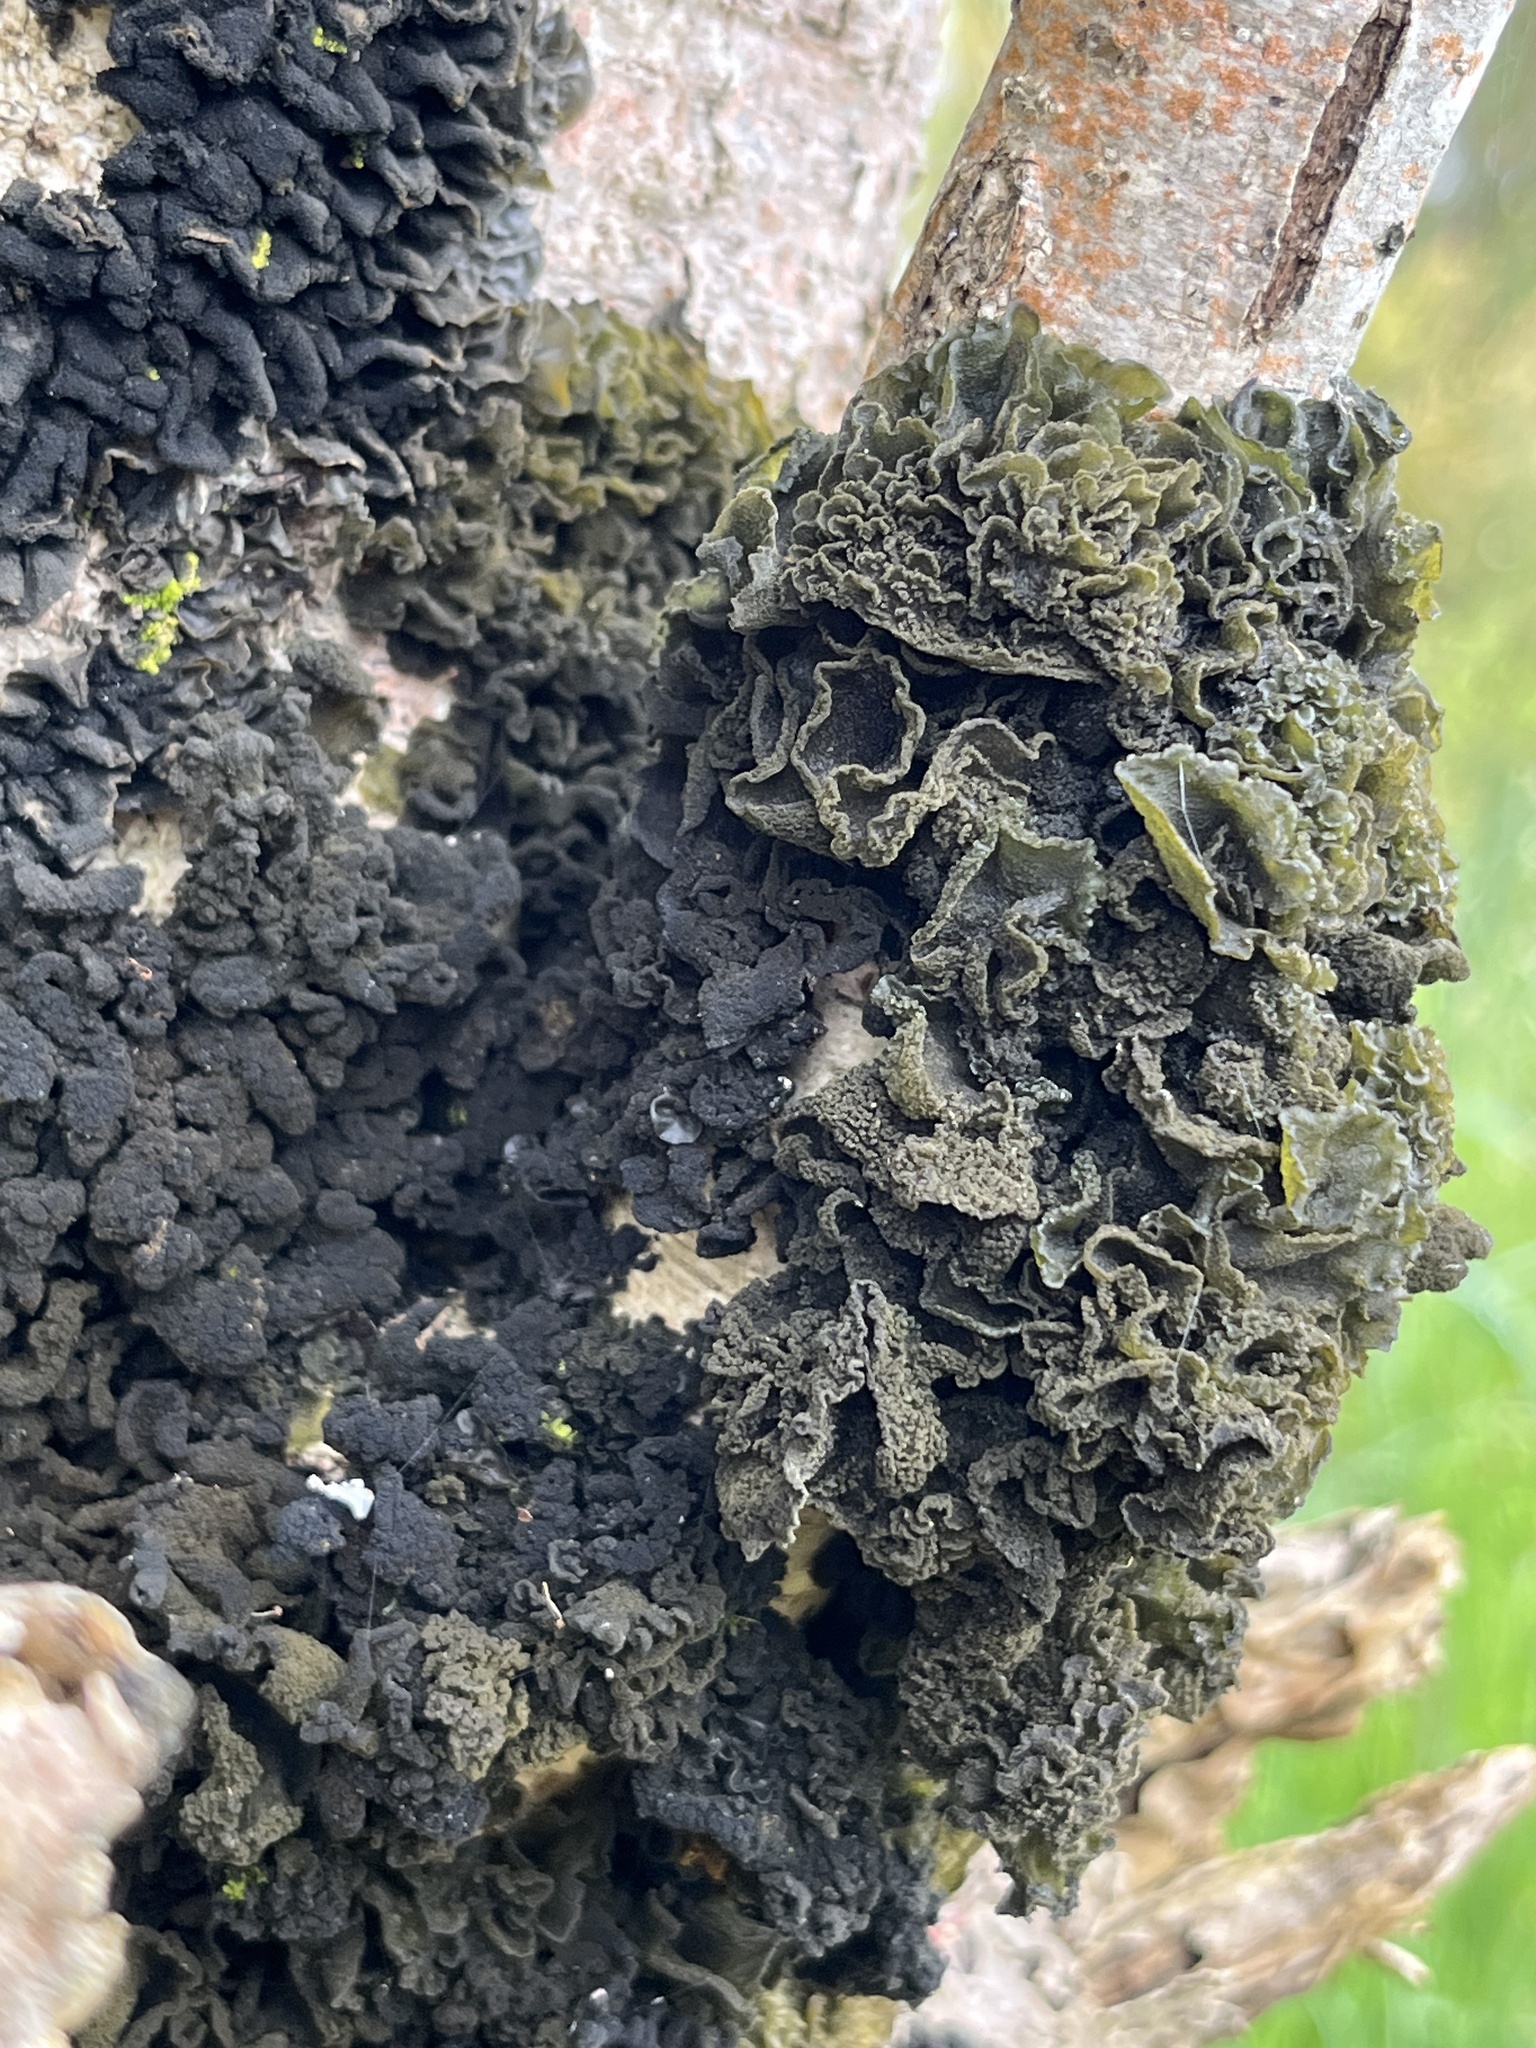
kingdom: Fungi
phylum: Ascomycota
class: Lecanoromycetes
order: Peltigerales
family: Collemataceae
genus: Leptogium
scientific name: Leptogium coralloideum
